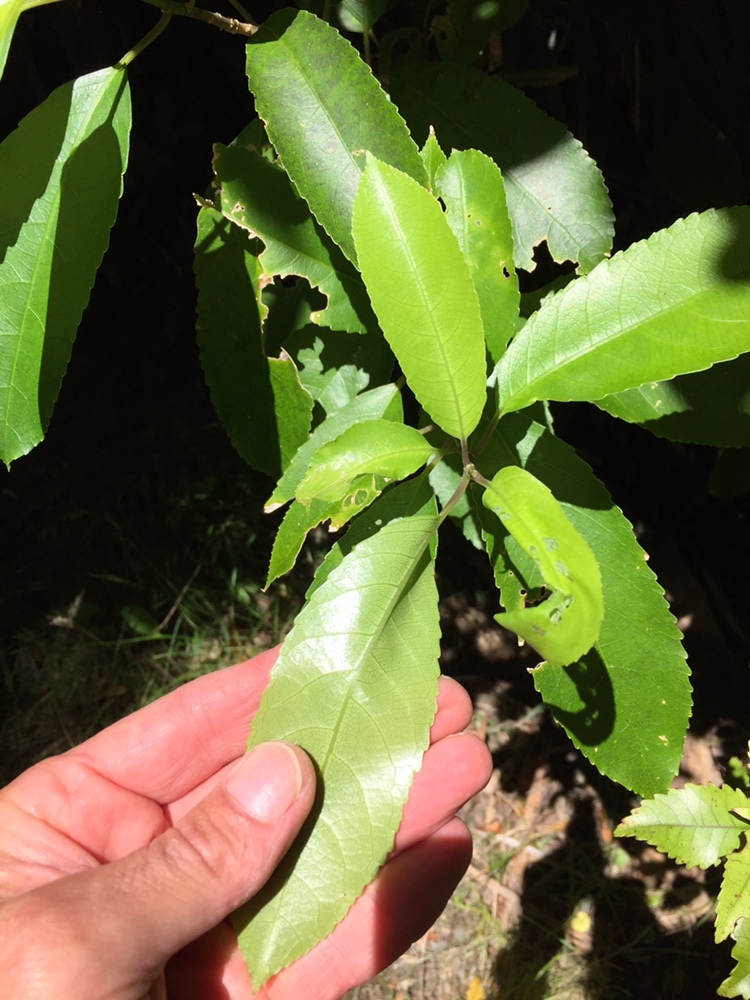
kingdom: Plantae
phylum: Tracheophyta
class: Magnoliopsida
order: Malpighiales
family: Violaceae
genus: Melicytus
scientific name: Melicytus ramiflorus
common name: Mahoe
